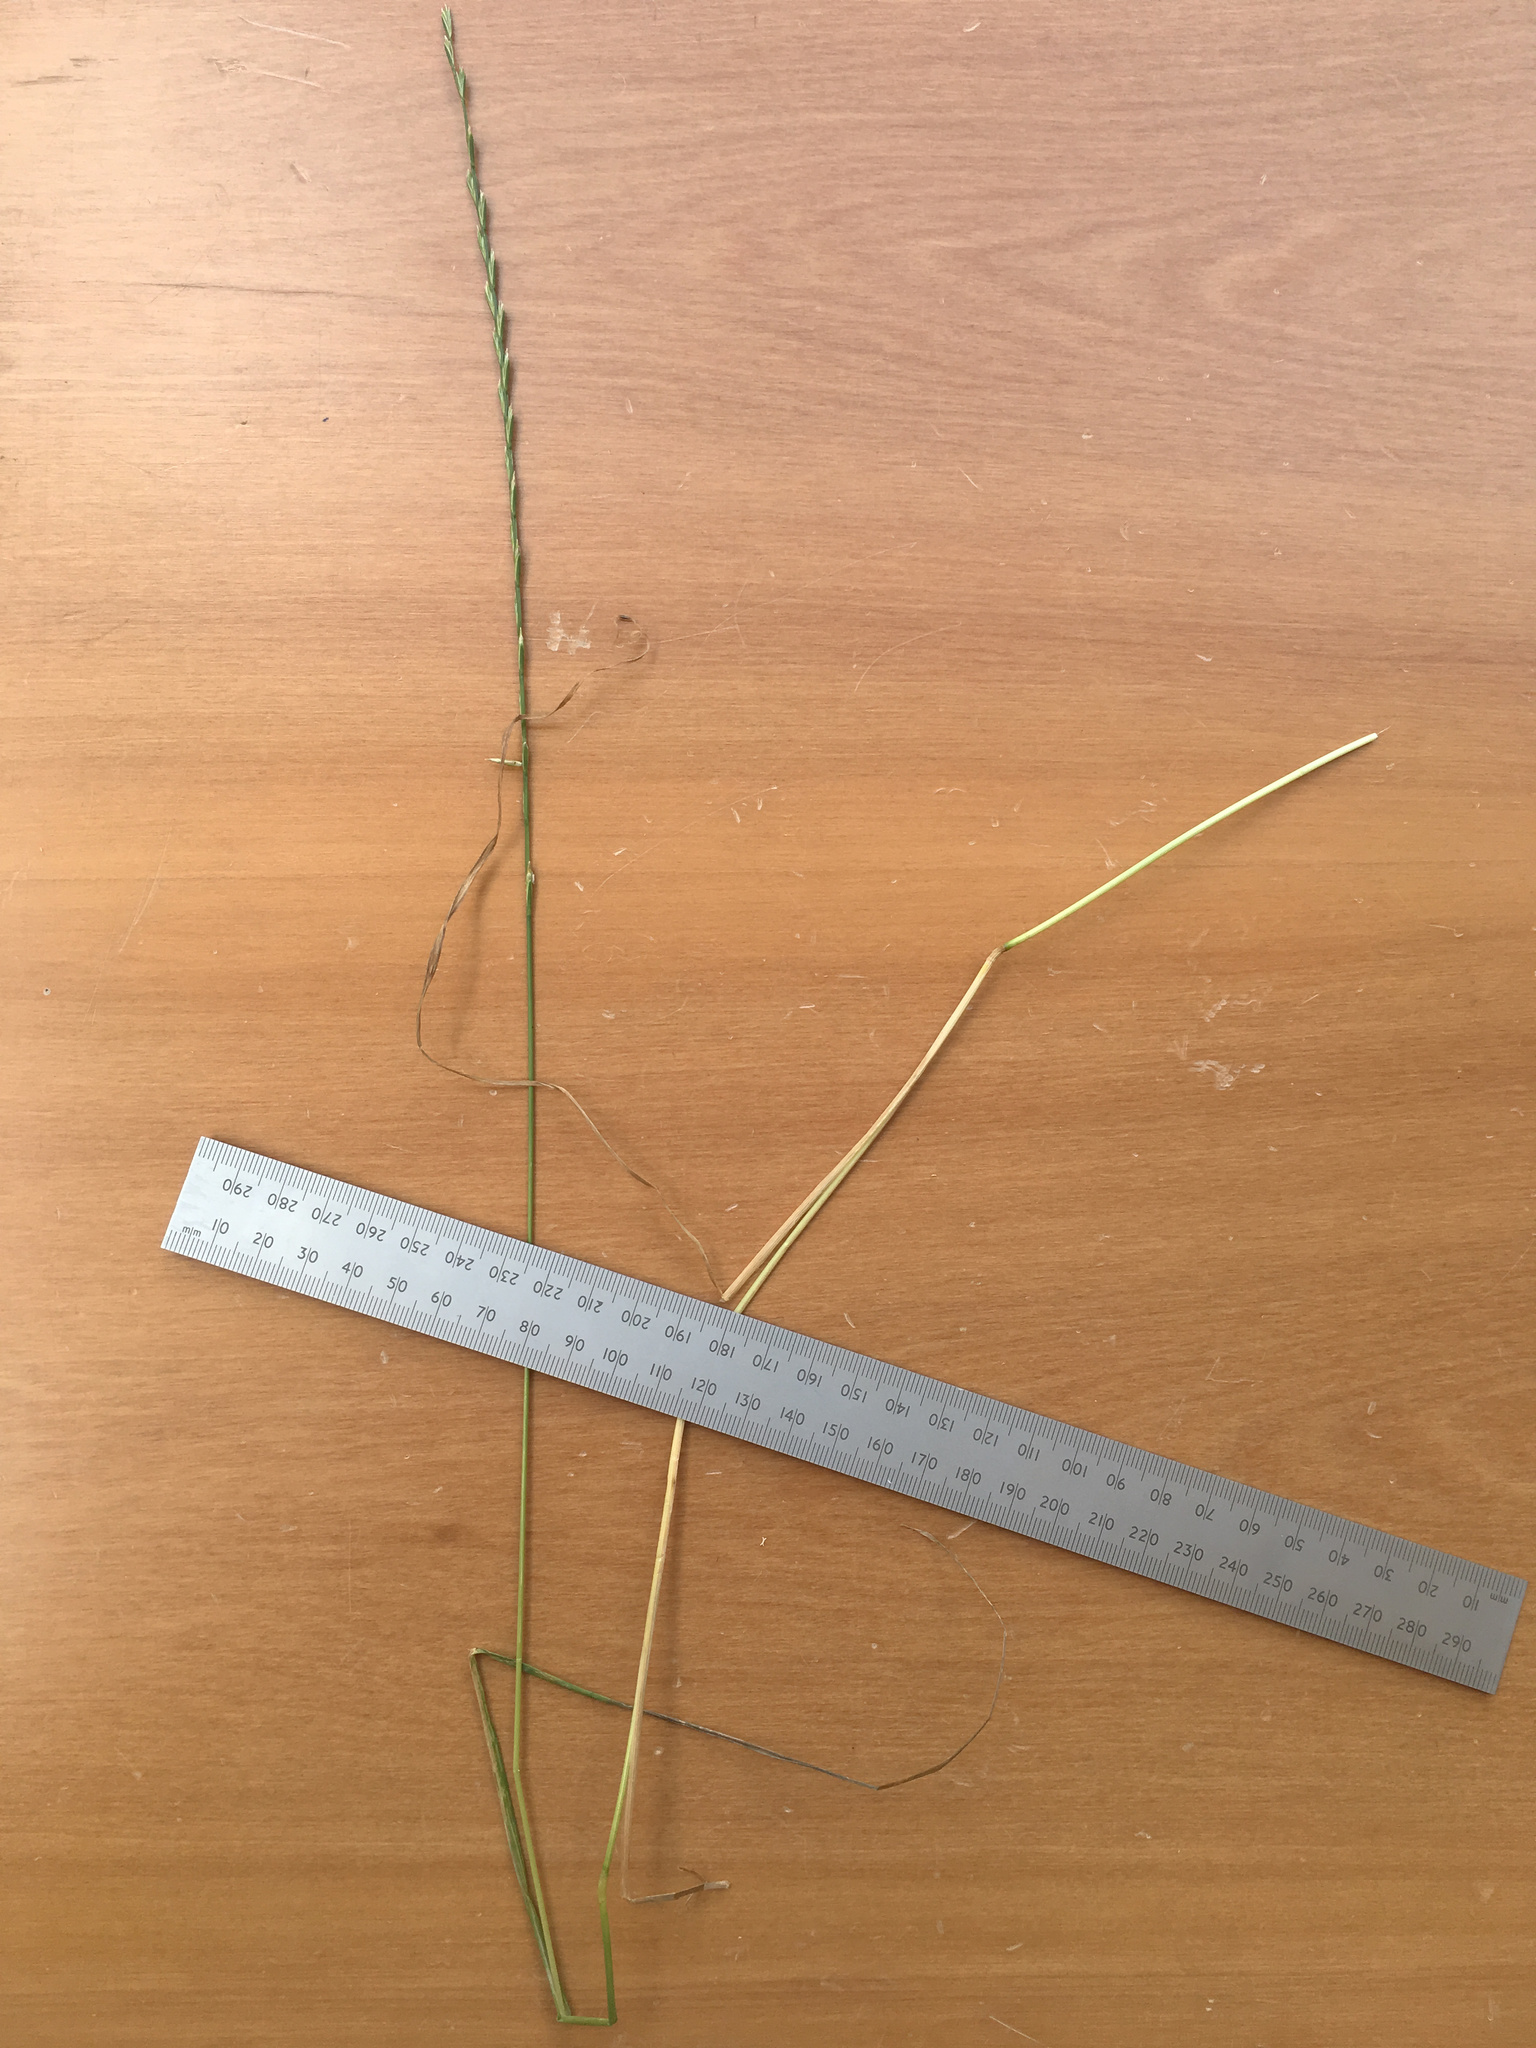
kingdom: Plantae
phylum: Tracheophyta
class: Liliopsida
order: Poales
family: Poaceae
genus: Lolium
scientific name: Lolium perenne
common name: Perennial ryegrass
